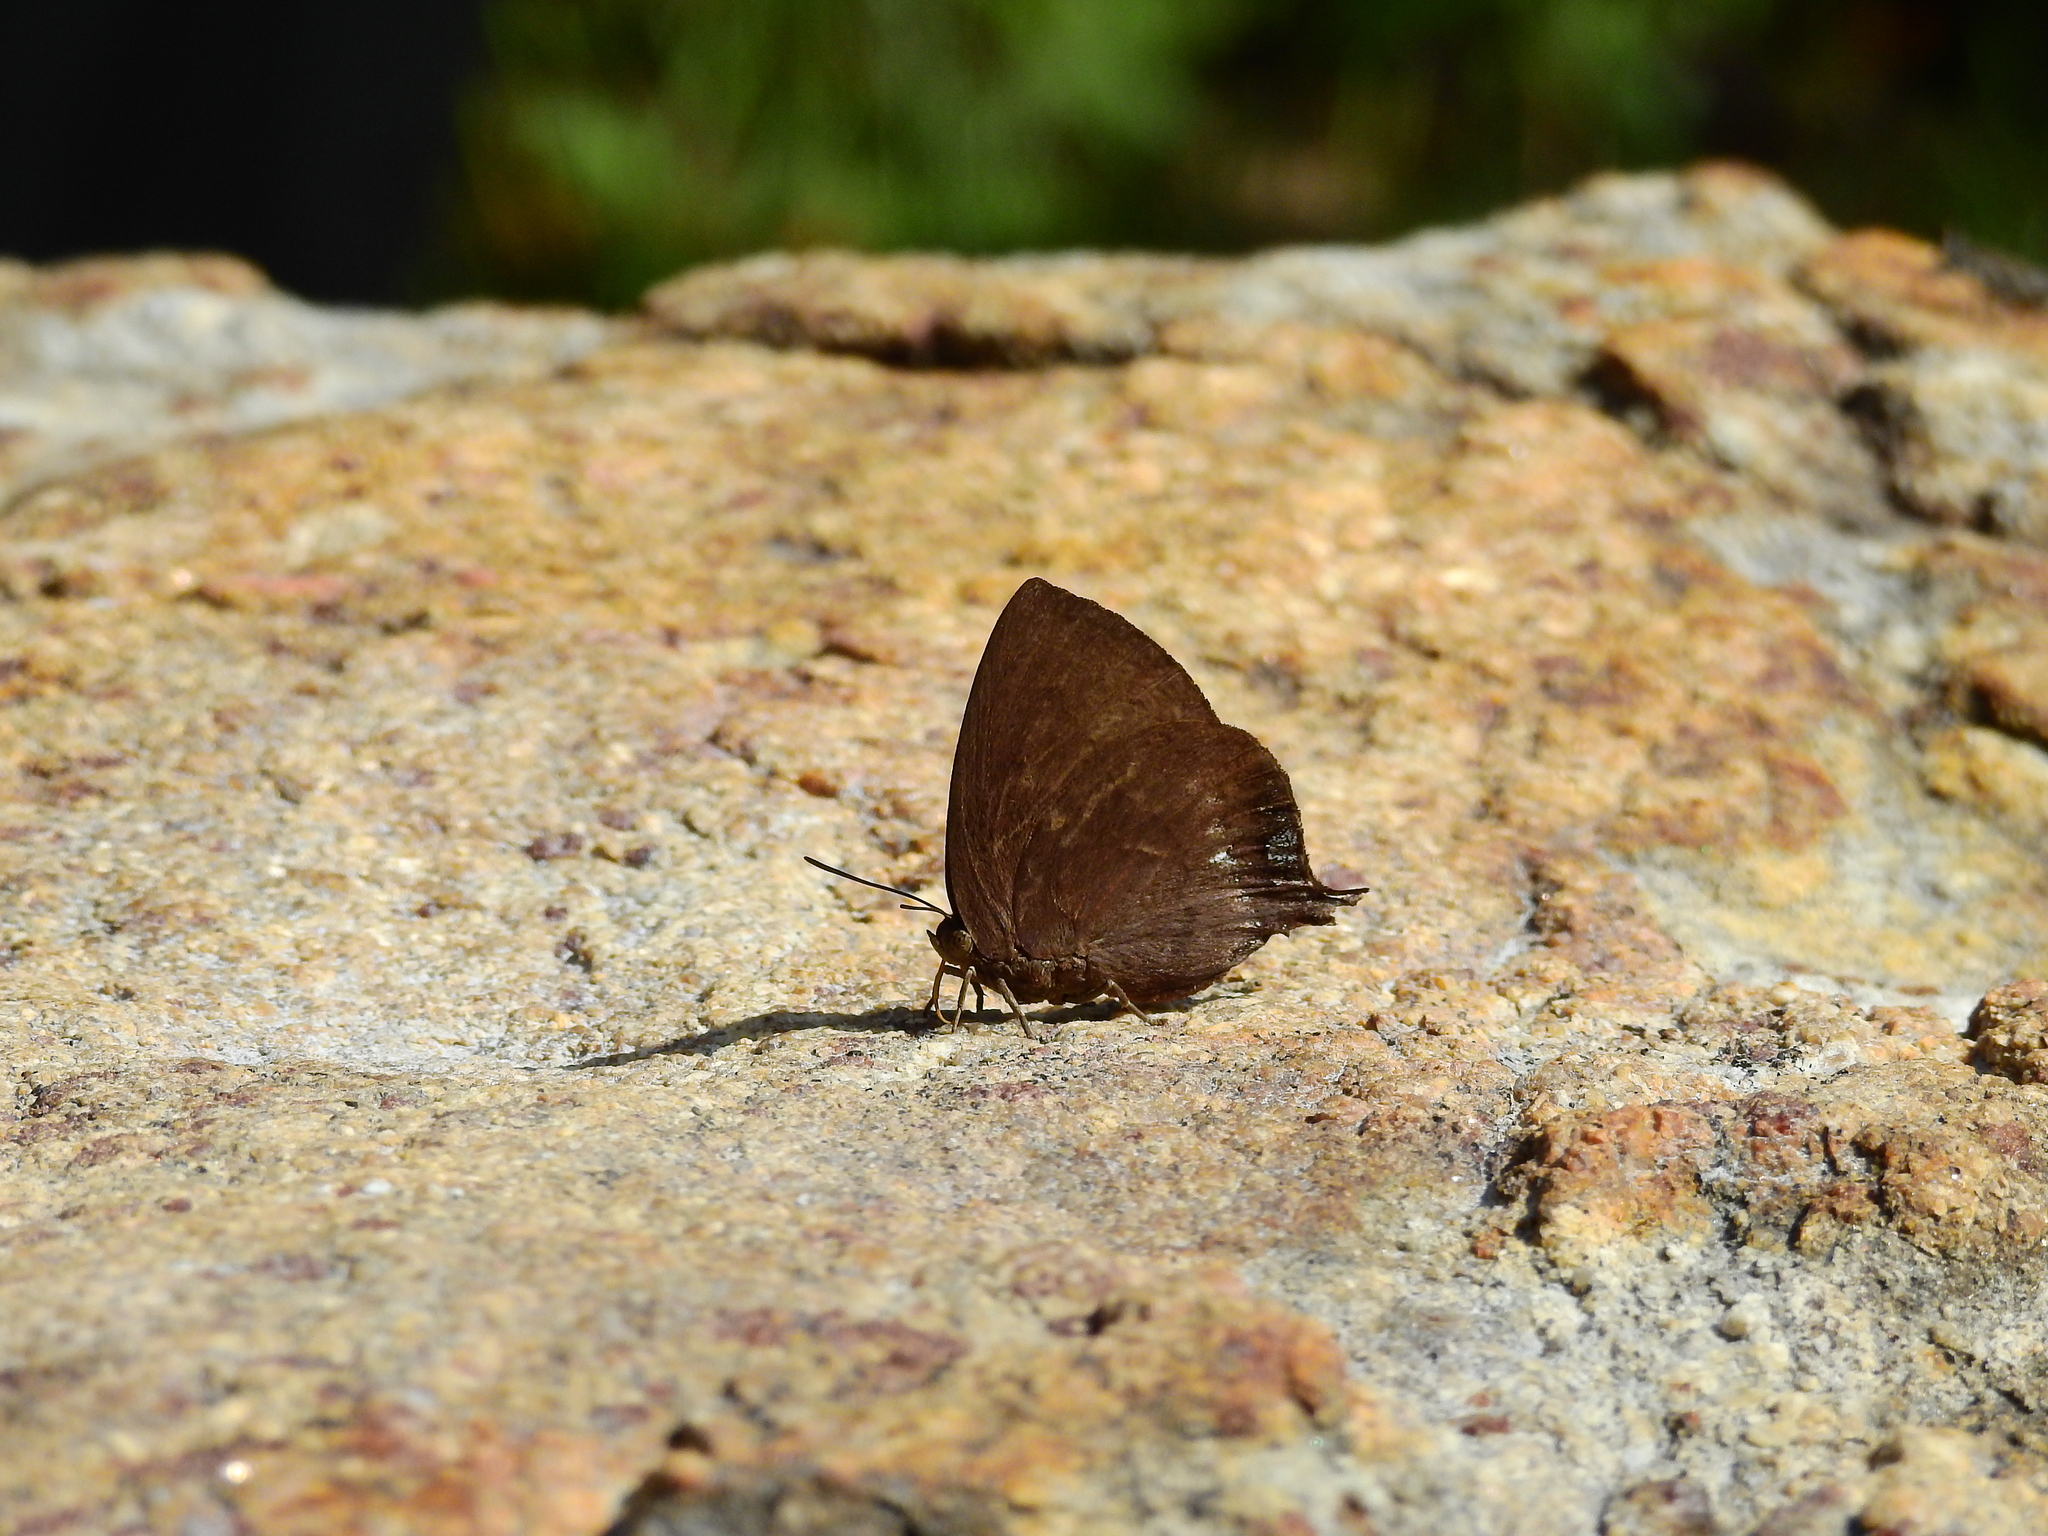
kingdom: Animalia
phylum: Arthropoda
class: Insecta
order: Lepidoptera
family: Lycaenidae
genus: Amblypodia
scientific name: Amblypodia anita
